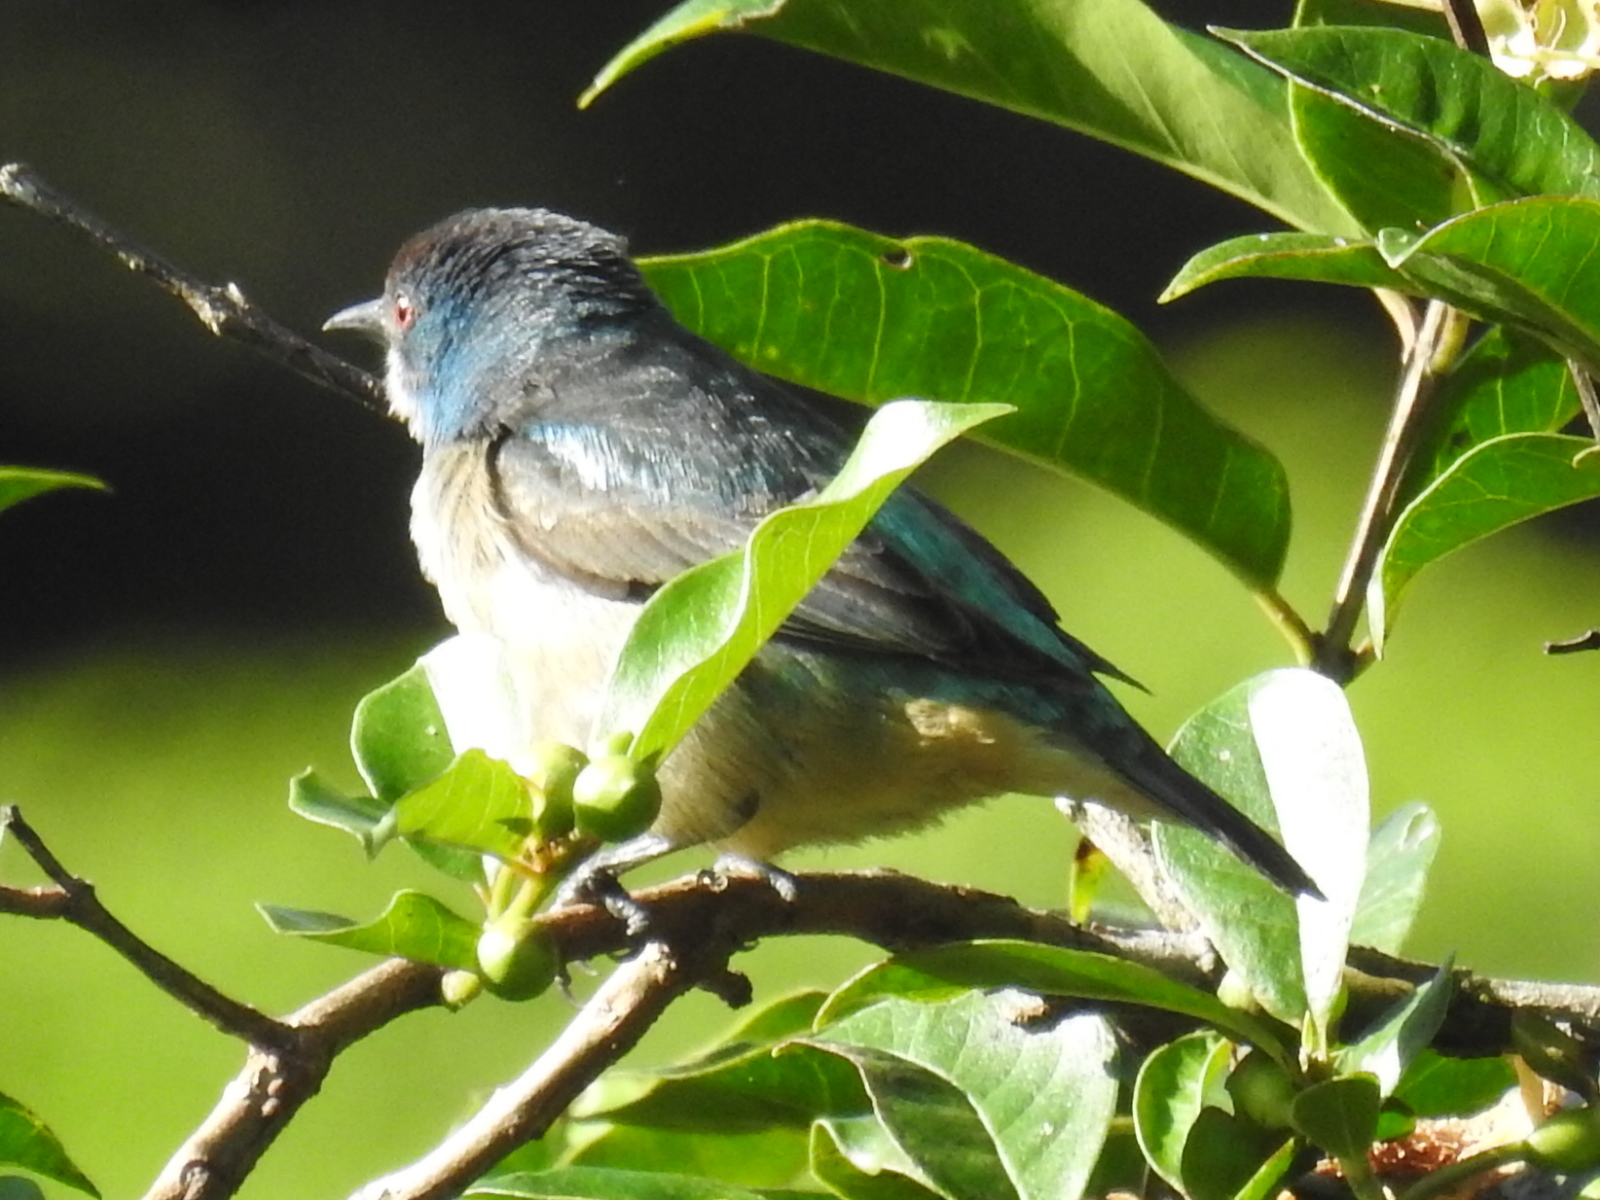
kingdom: Animalia
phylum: Chordata
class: Aves
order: Passeriformes
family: Thraupidae
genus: Dacnis
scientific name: Dacnis venusta
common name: Scarlet-thighed dacnis
